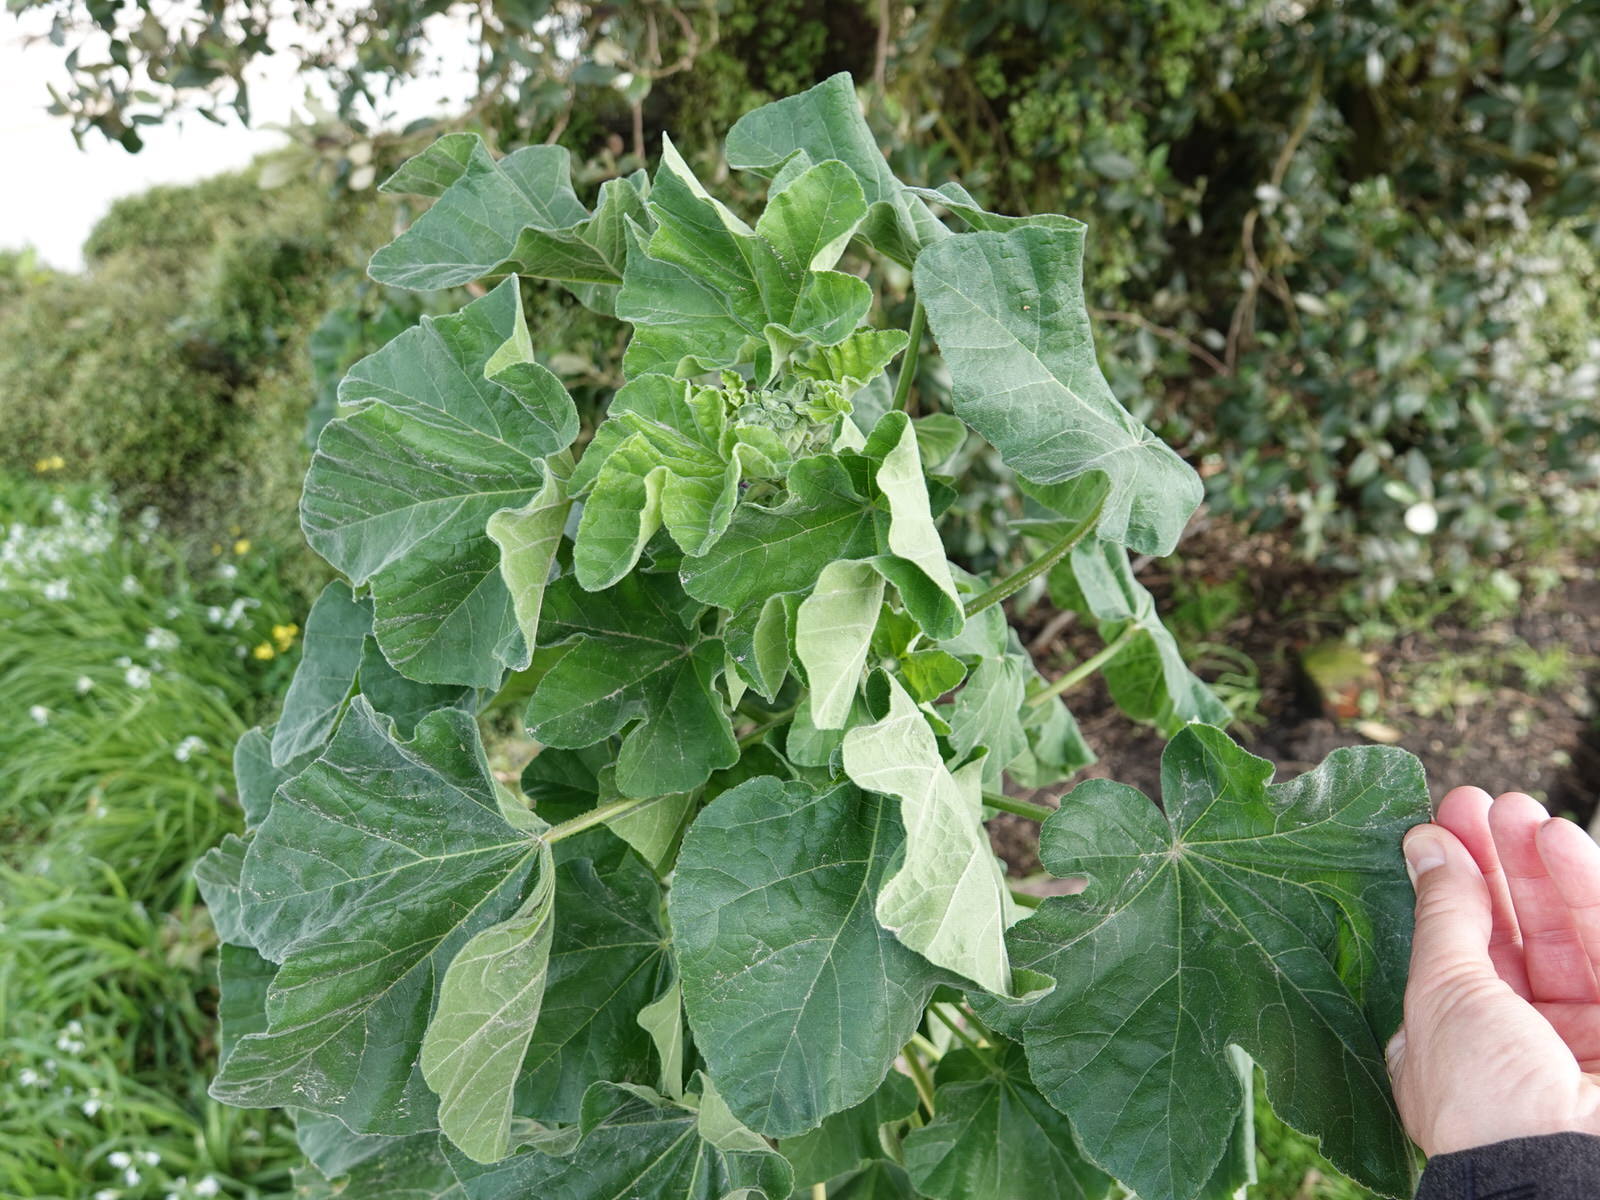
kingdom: Plantae
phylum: Tracheophyta
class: Magnoliopsida
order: Malvales
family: Malvaceae
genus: Malva
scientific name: Malva arborea
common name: Tree mallow
